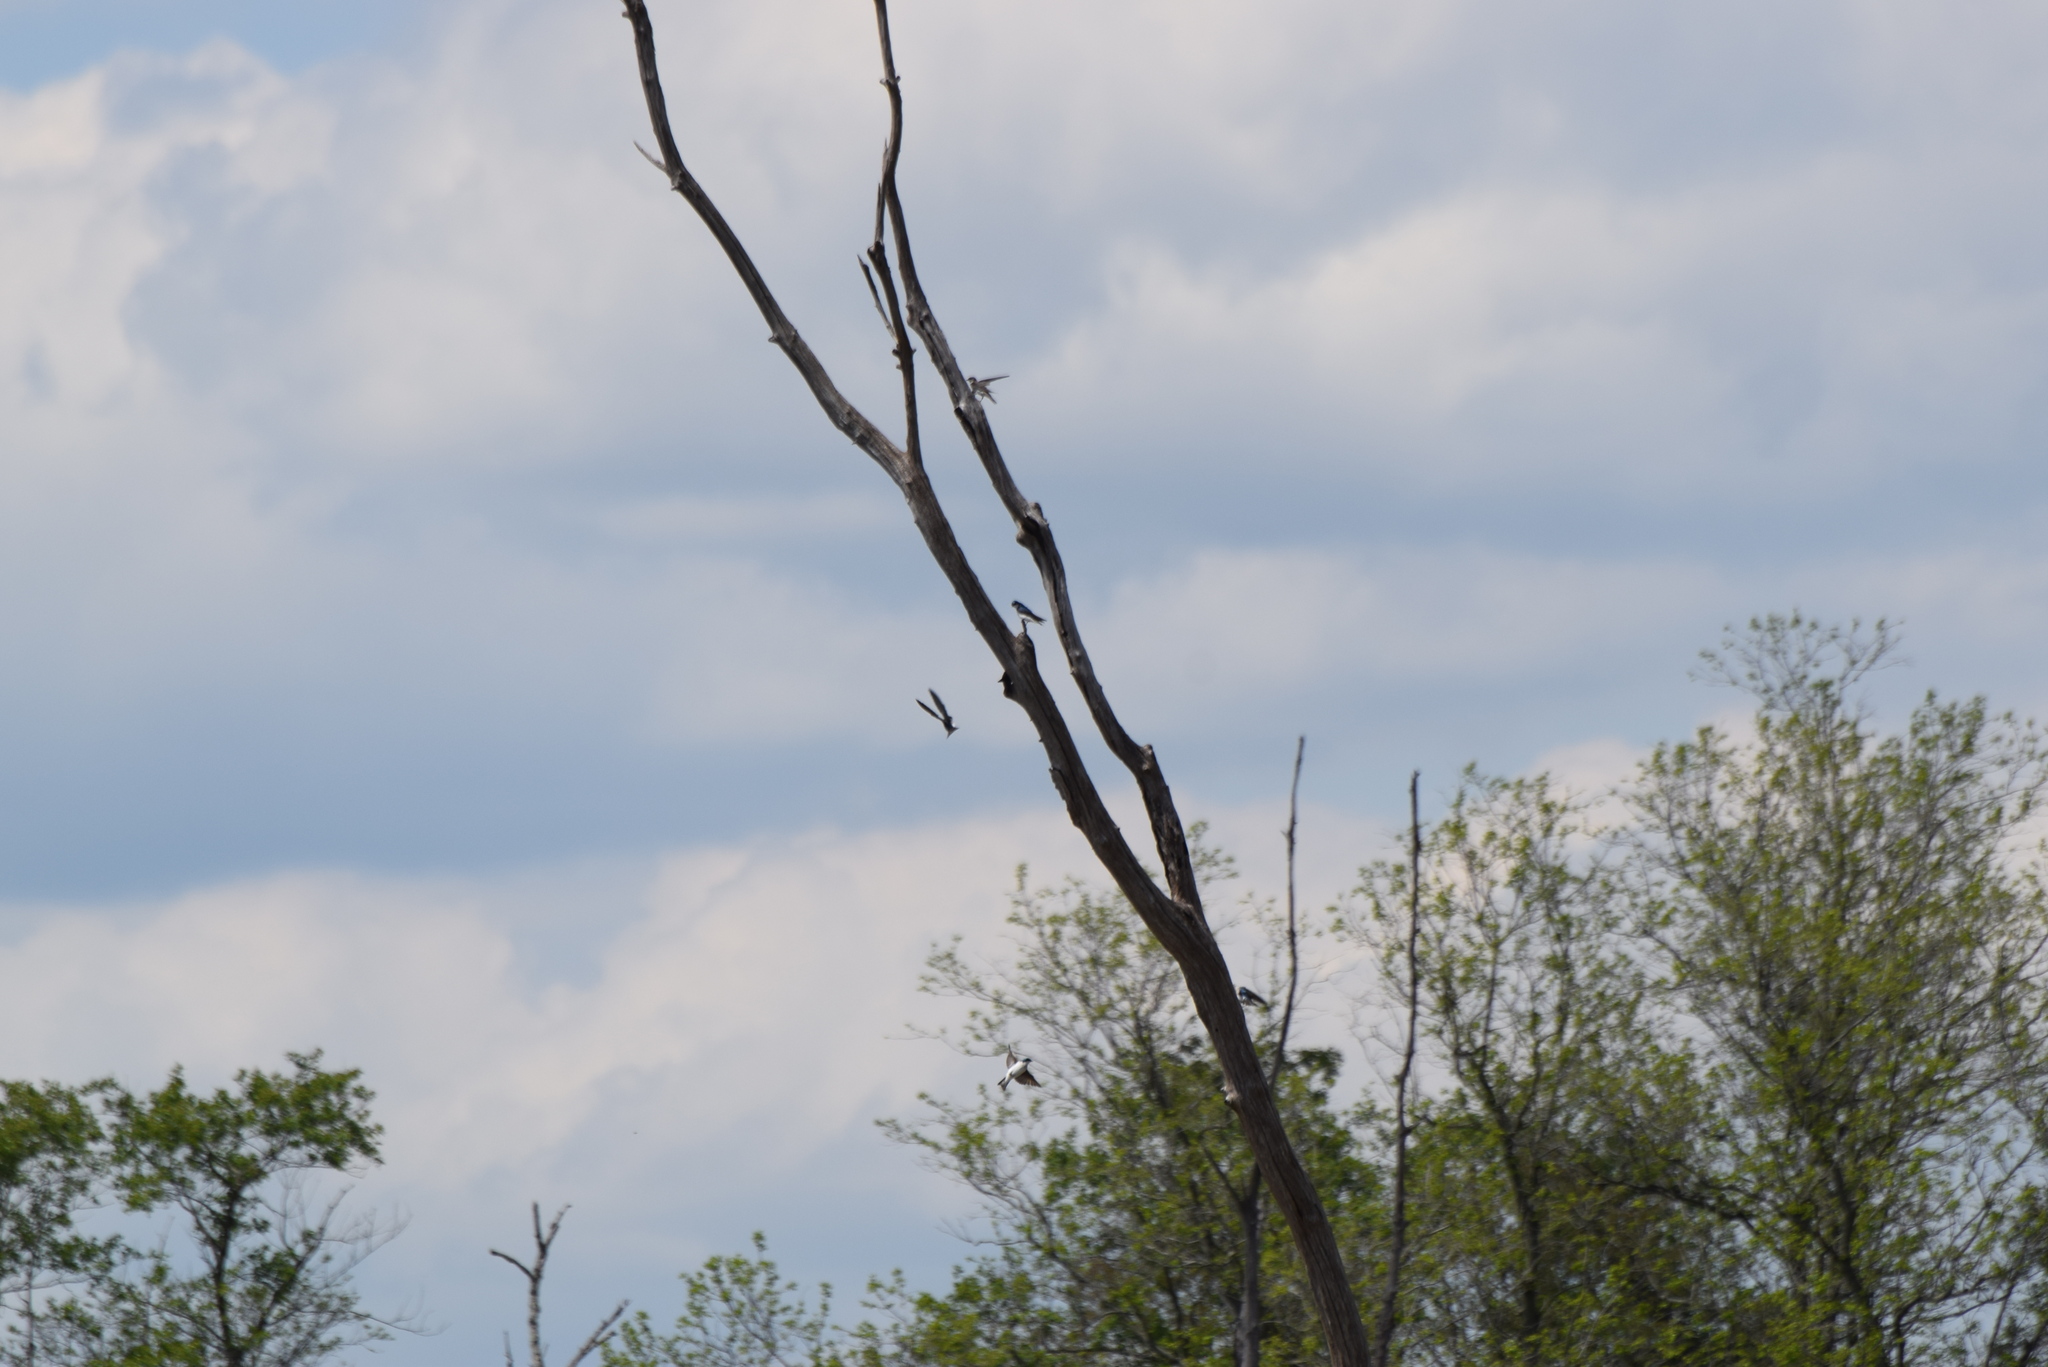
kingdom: Animalia
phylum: Chordata
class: Aves
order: Passeriformes
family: Hirundinidae
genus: Tachycineta
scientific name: Tachycineta bicolor
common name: Tree swallow
